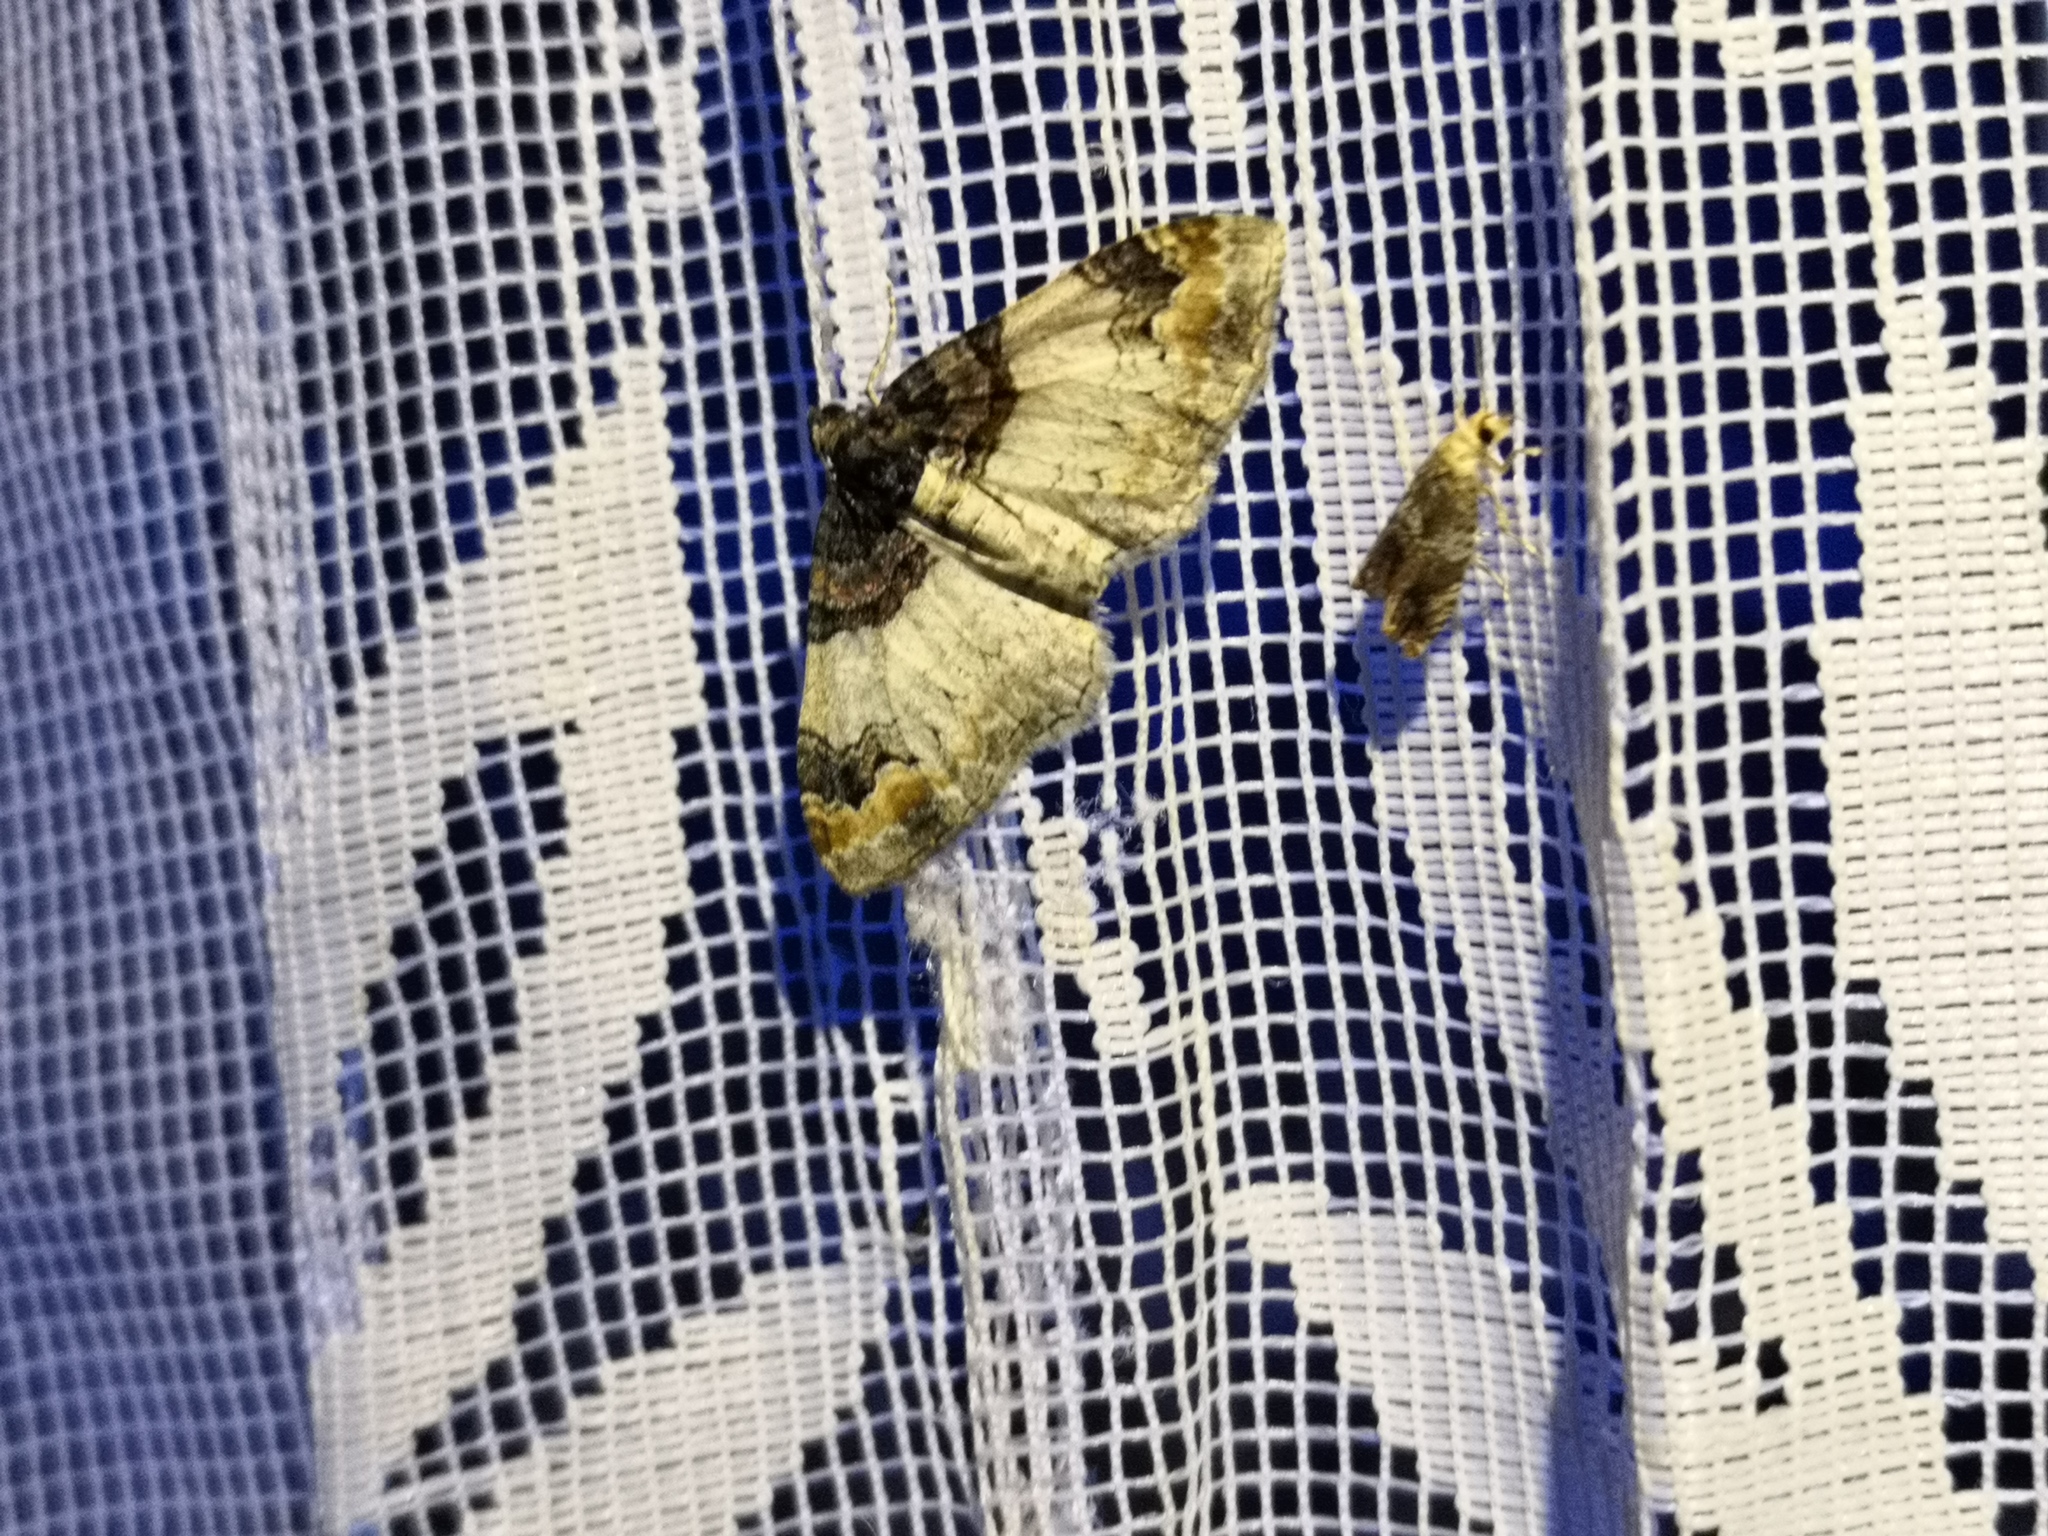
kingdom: Animalia
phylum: Arthropoda
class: Insecta
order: Lepidoptera
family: Geometridae
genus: Catarhoe
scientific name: Catarhoe cuculata
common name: Royal mantle
